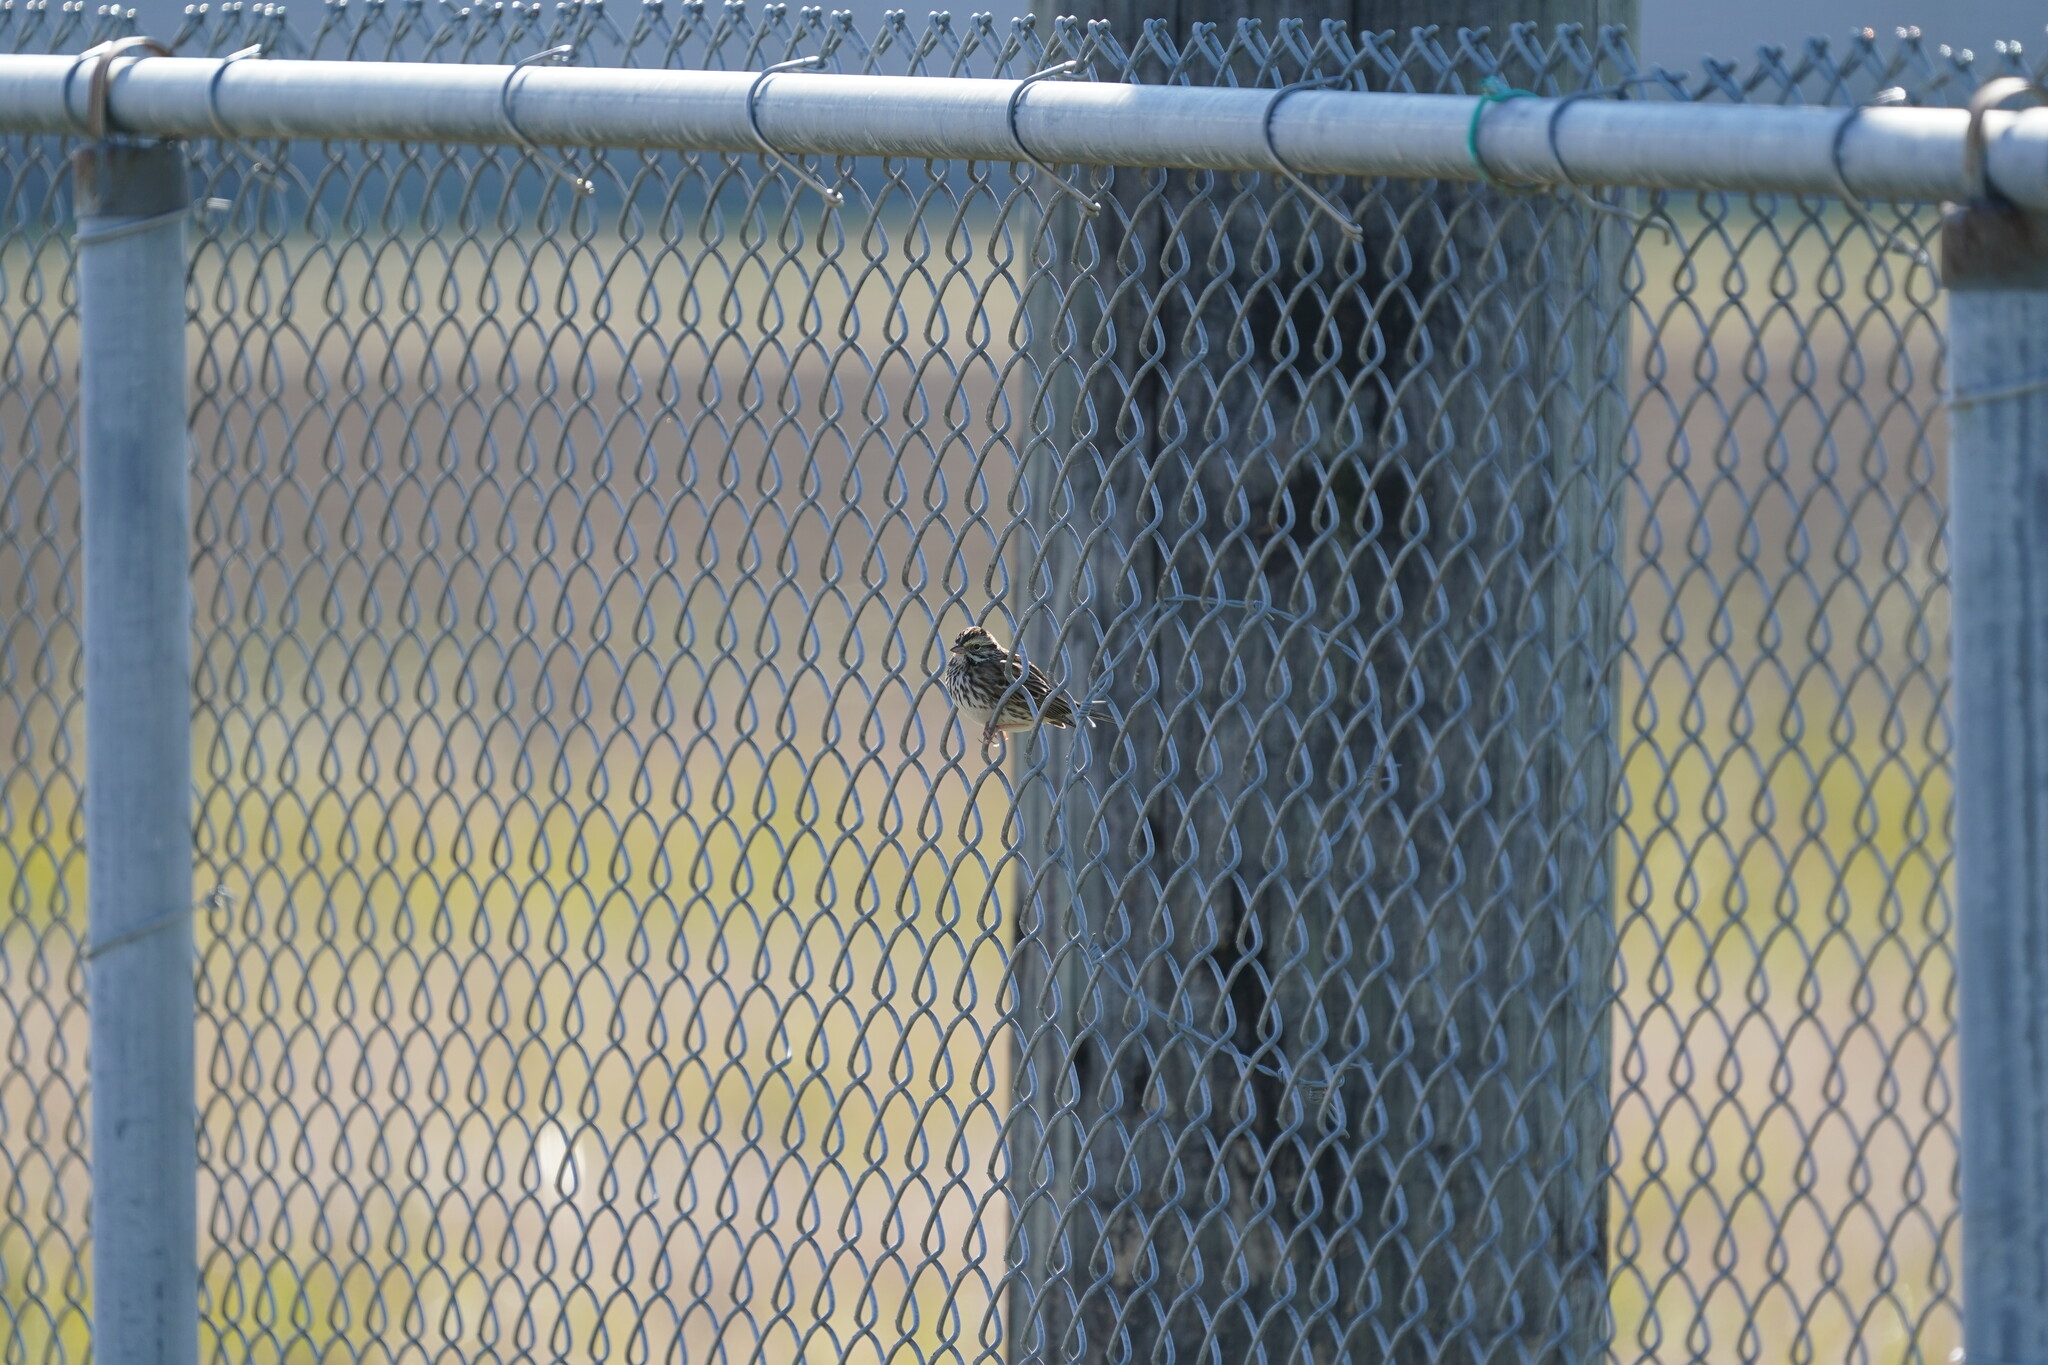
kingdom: Animalia
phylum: Chordata
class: Aves
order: Passeriformes
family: Passerellidae
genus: Passerculus
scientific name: Passerculus sandwichensis
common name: Savannah sparrow
